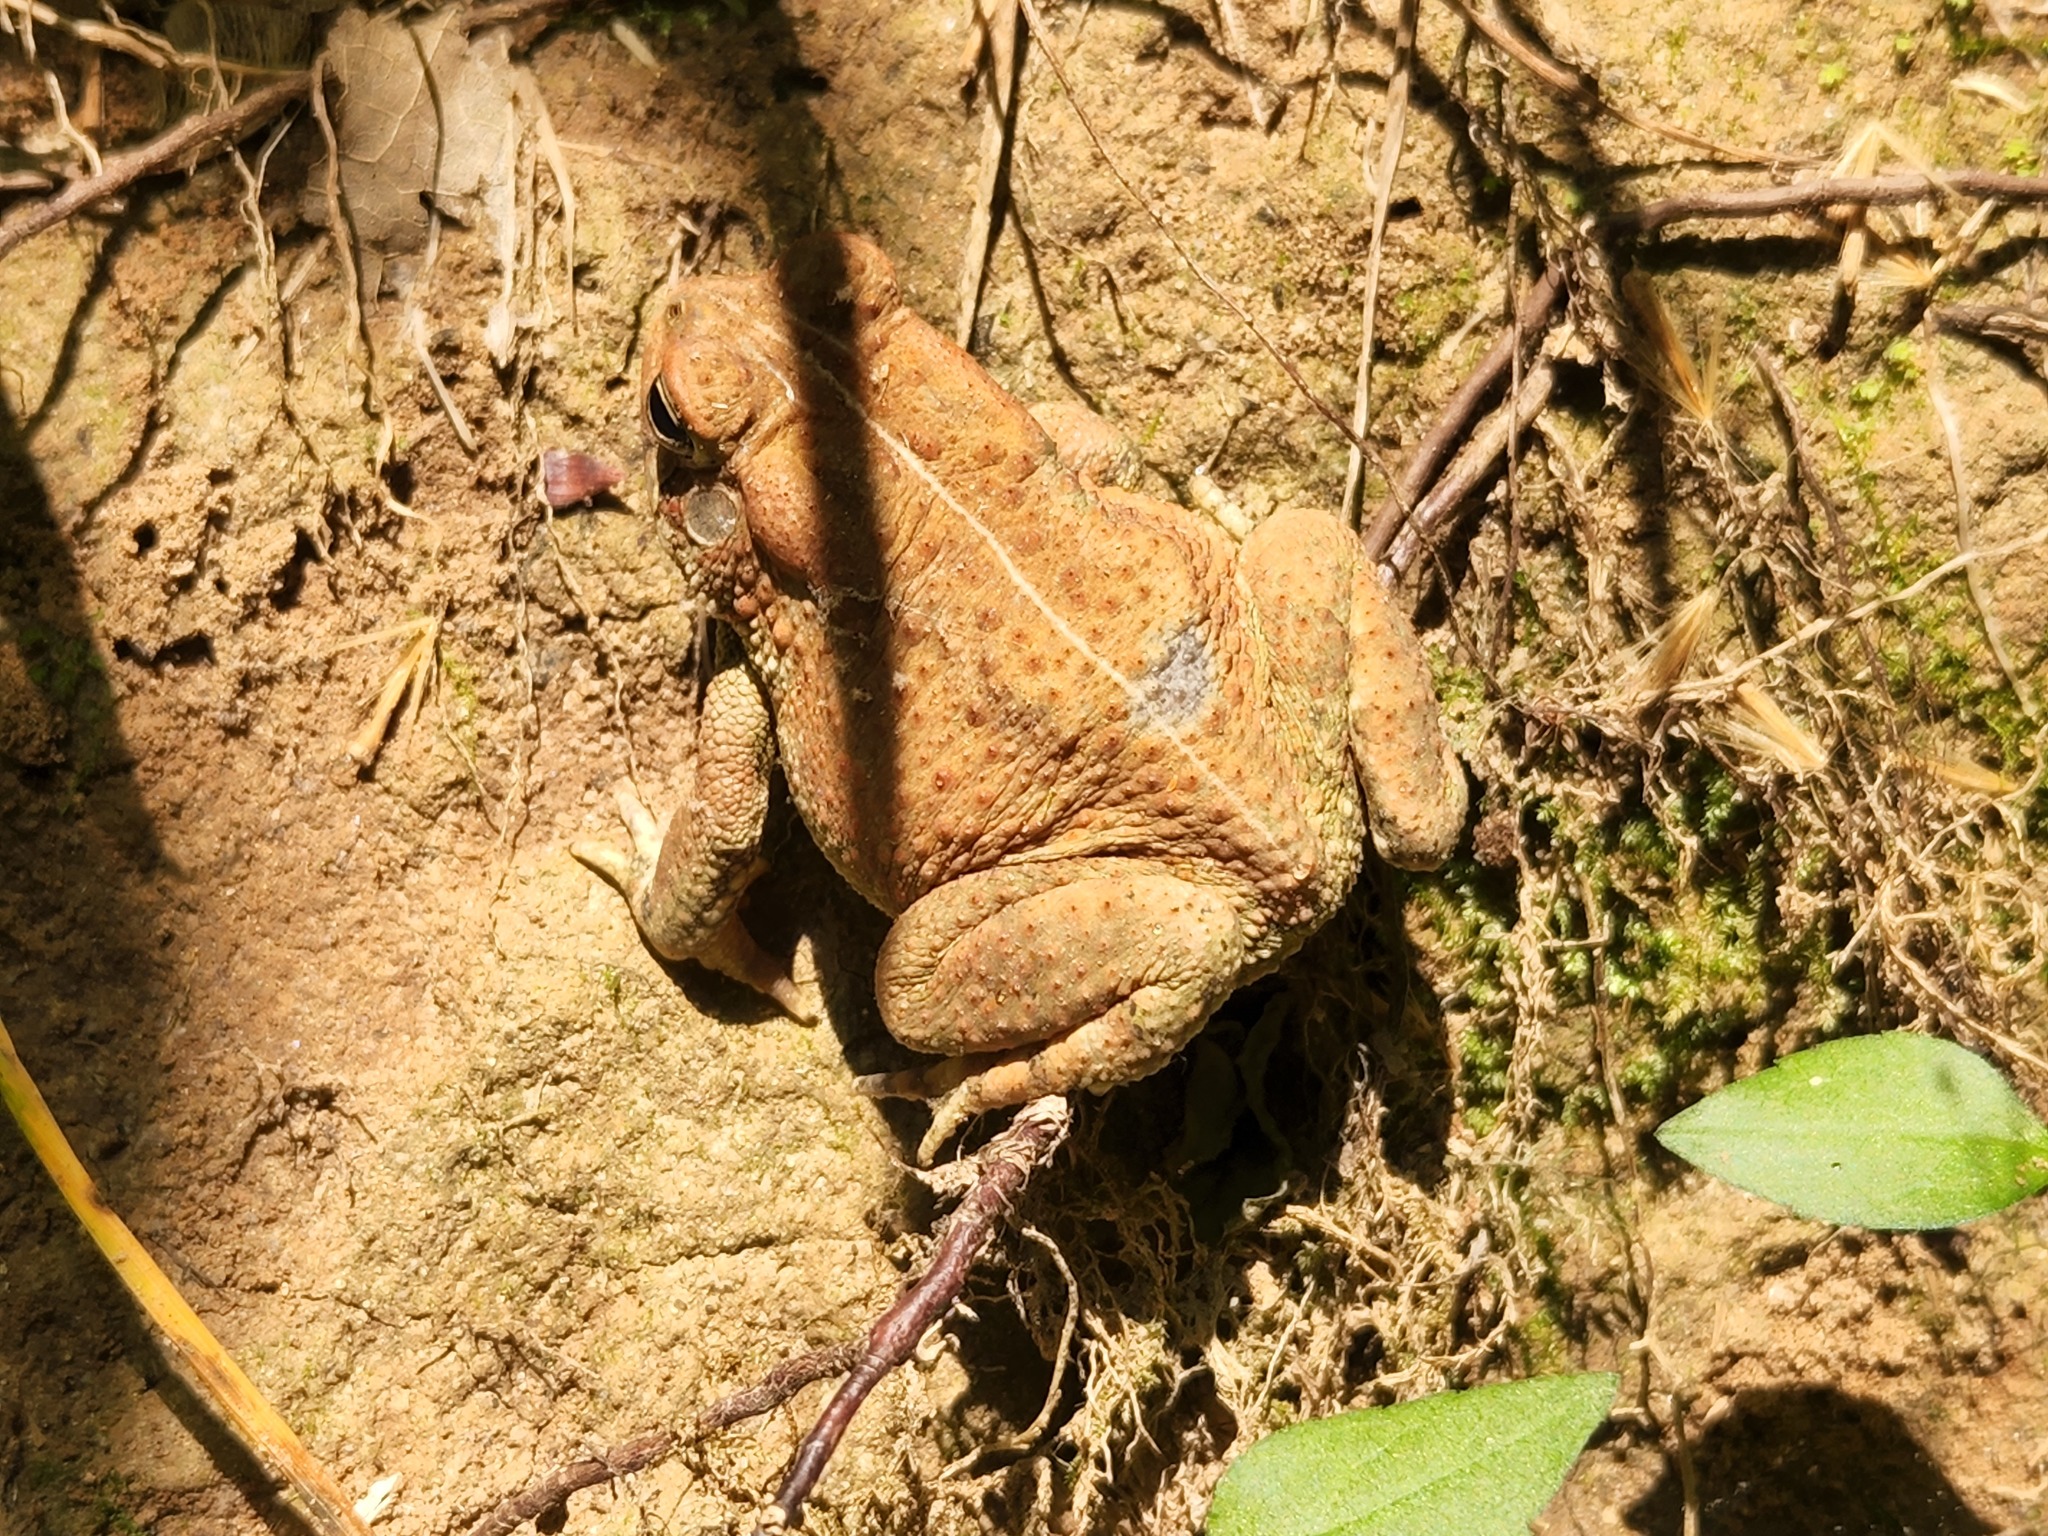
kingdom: Animalia
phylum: Chordata
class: Amphibia
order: Anura
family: Bufonidae
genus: Anaxyrus
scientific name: Anaxyrus fowleri
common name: Fowler's toad
